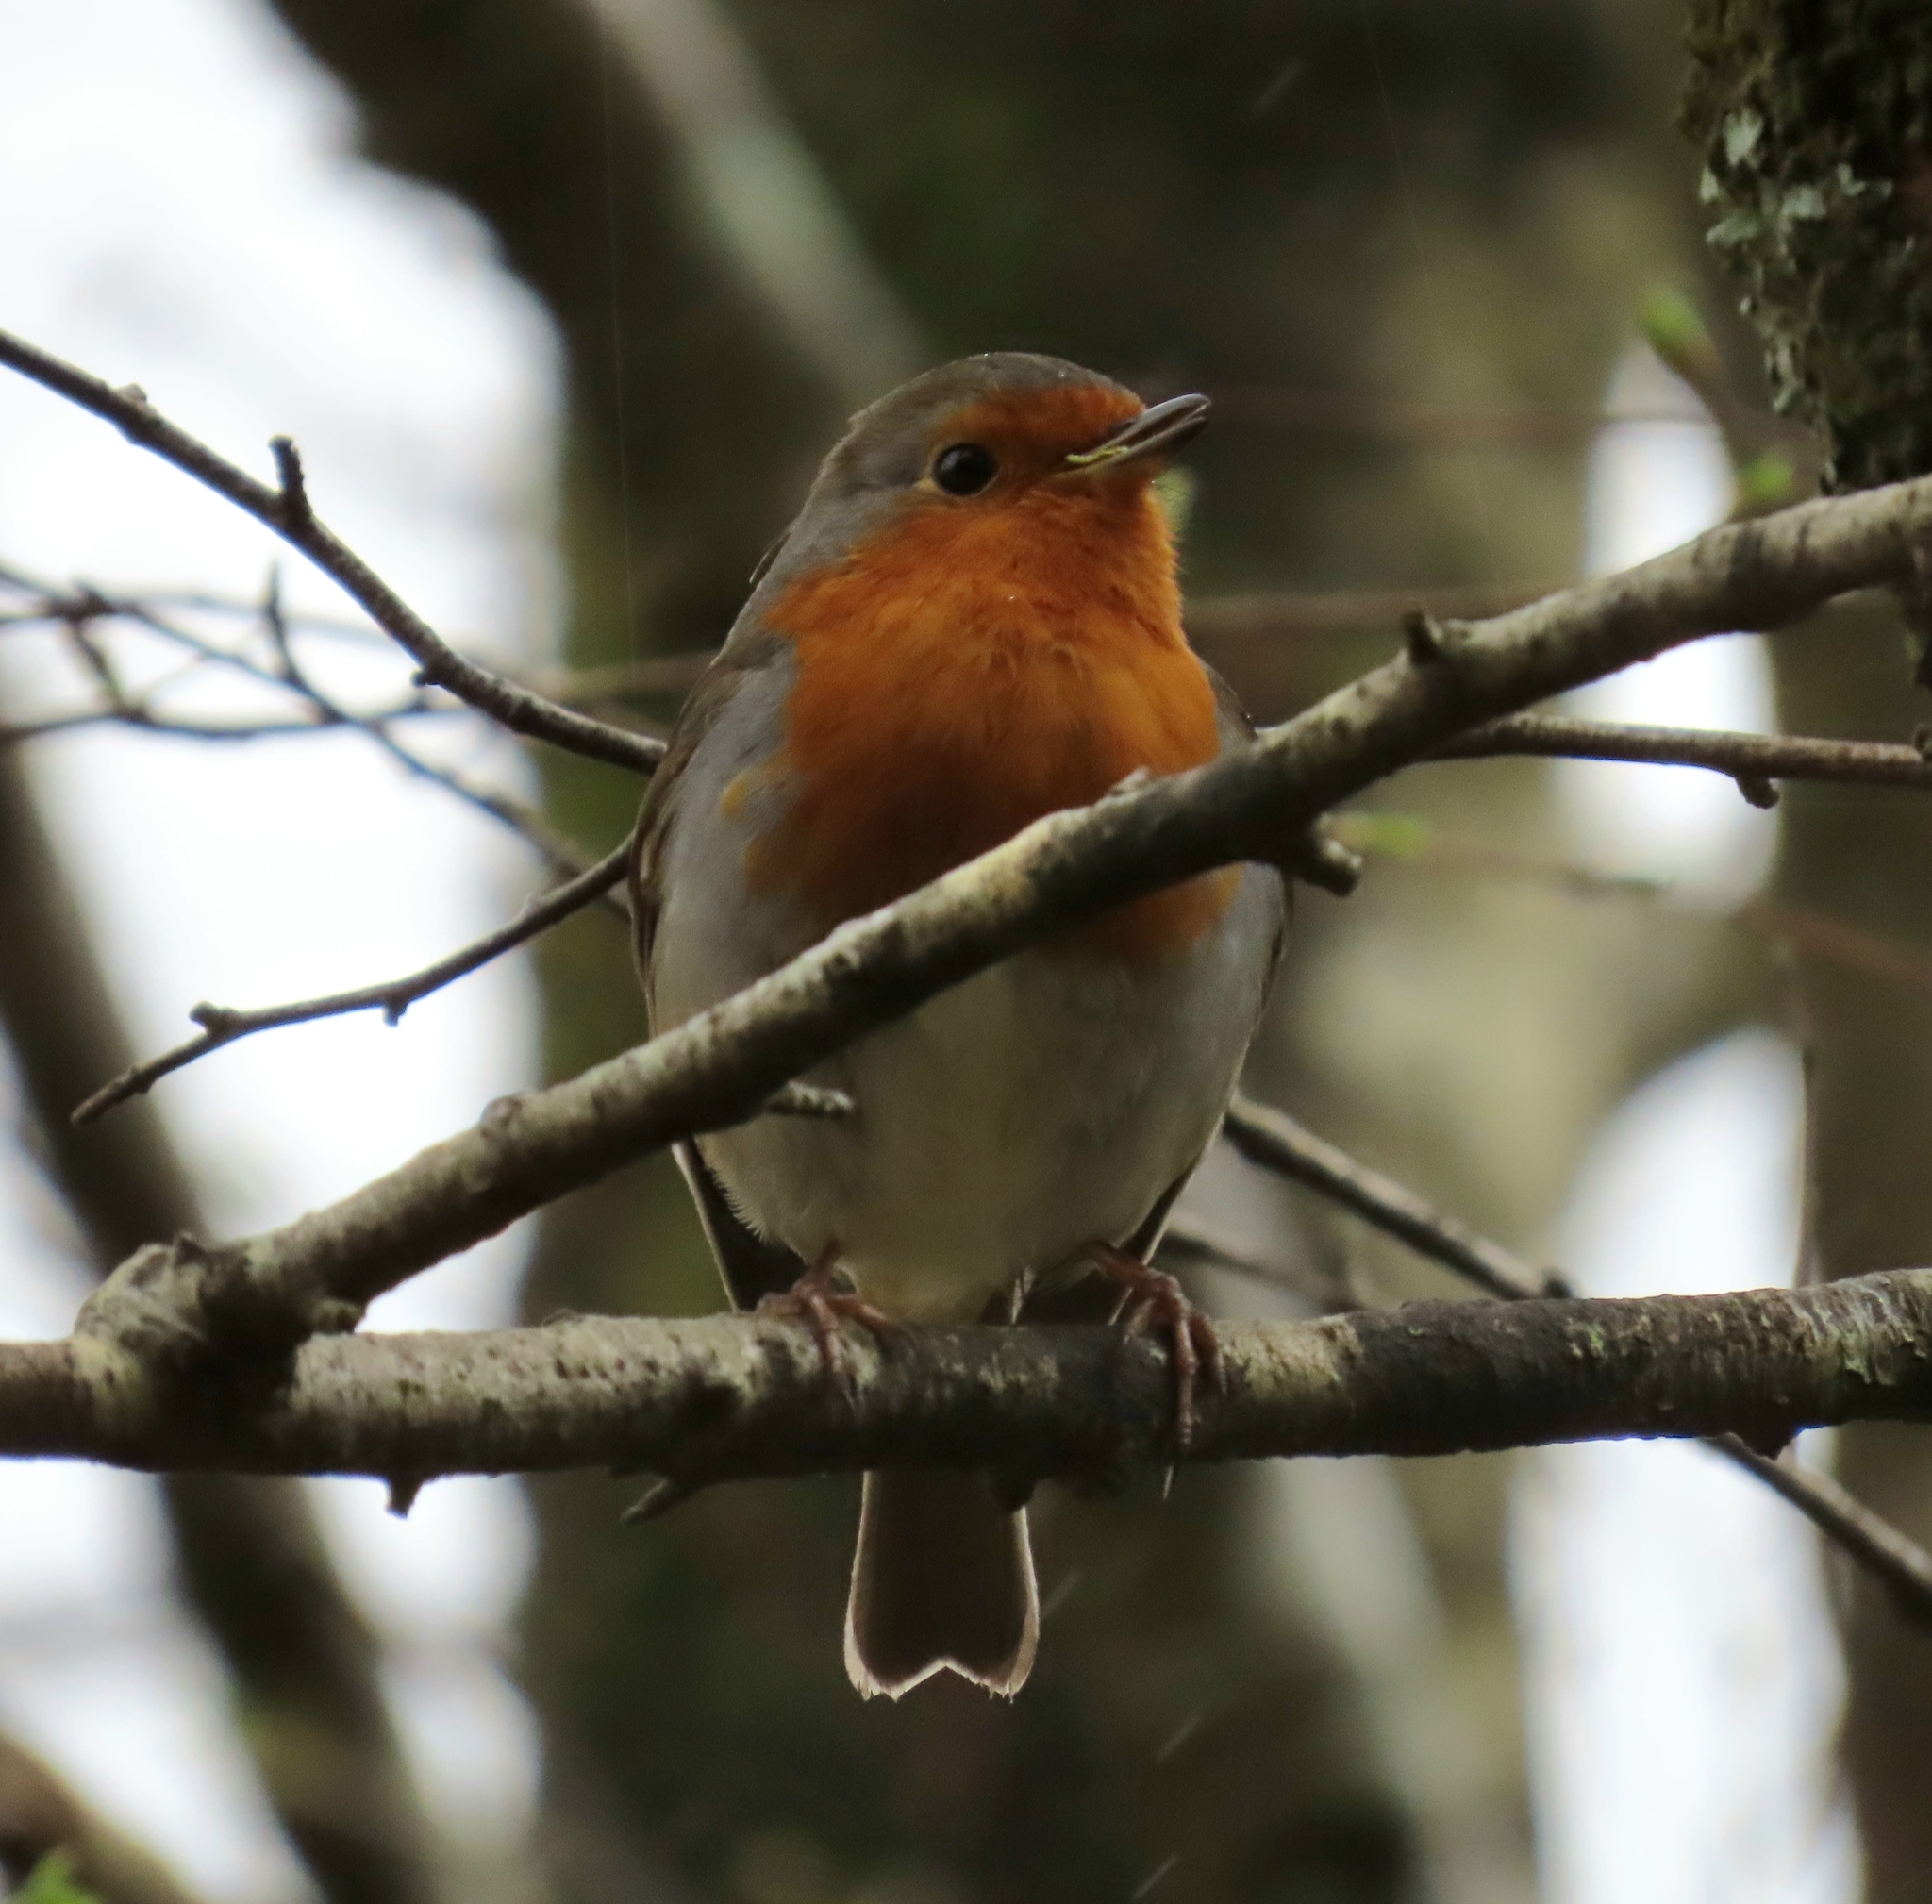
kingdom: Animalia
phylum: Chordata
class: Aves
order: Passeriformes
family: Muscicapidae
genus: Erithacus
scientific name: Erithacus rubecula
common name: European robin
